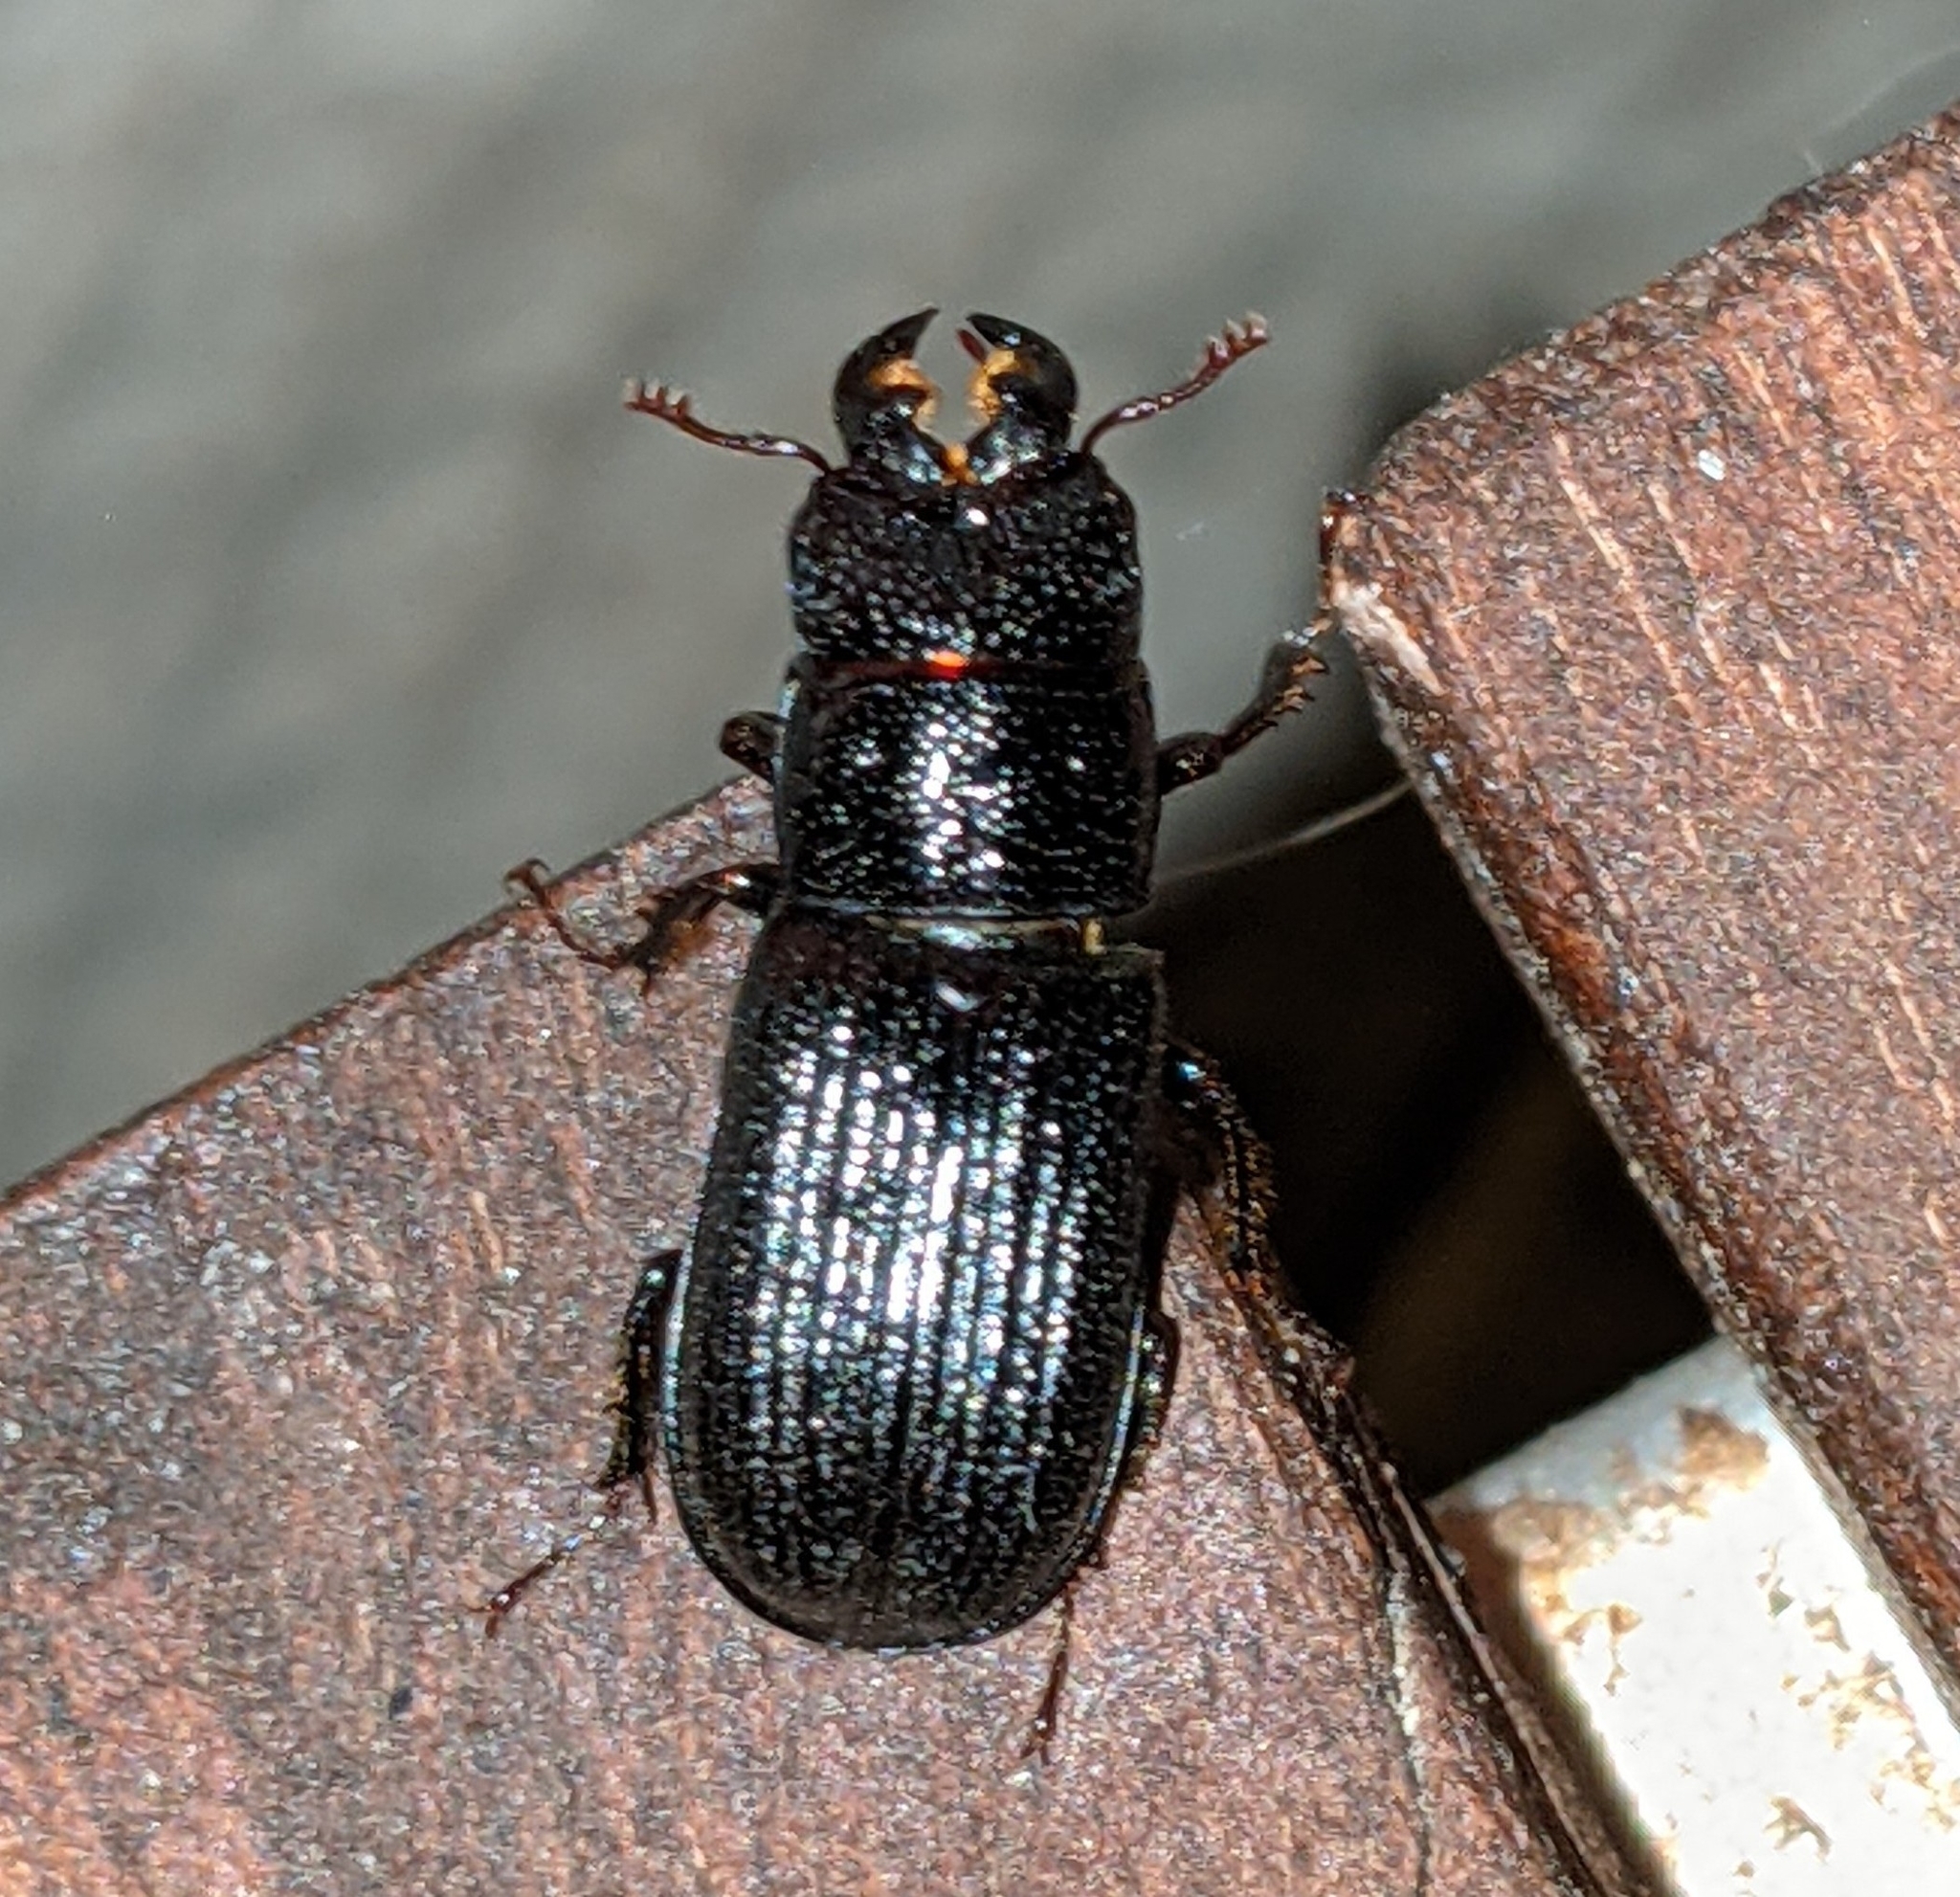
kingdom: Animalia
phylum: Arthropoda
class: Insecta
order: Coleoptera
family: Lucanidae
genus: Ceruchus
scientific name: Ceruchus striatus
